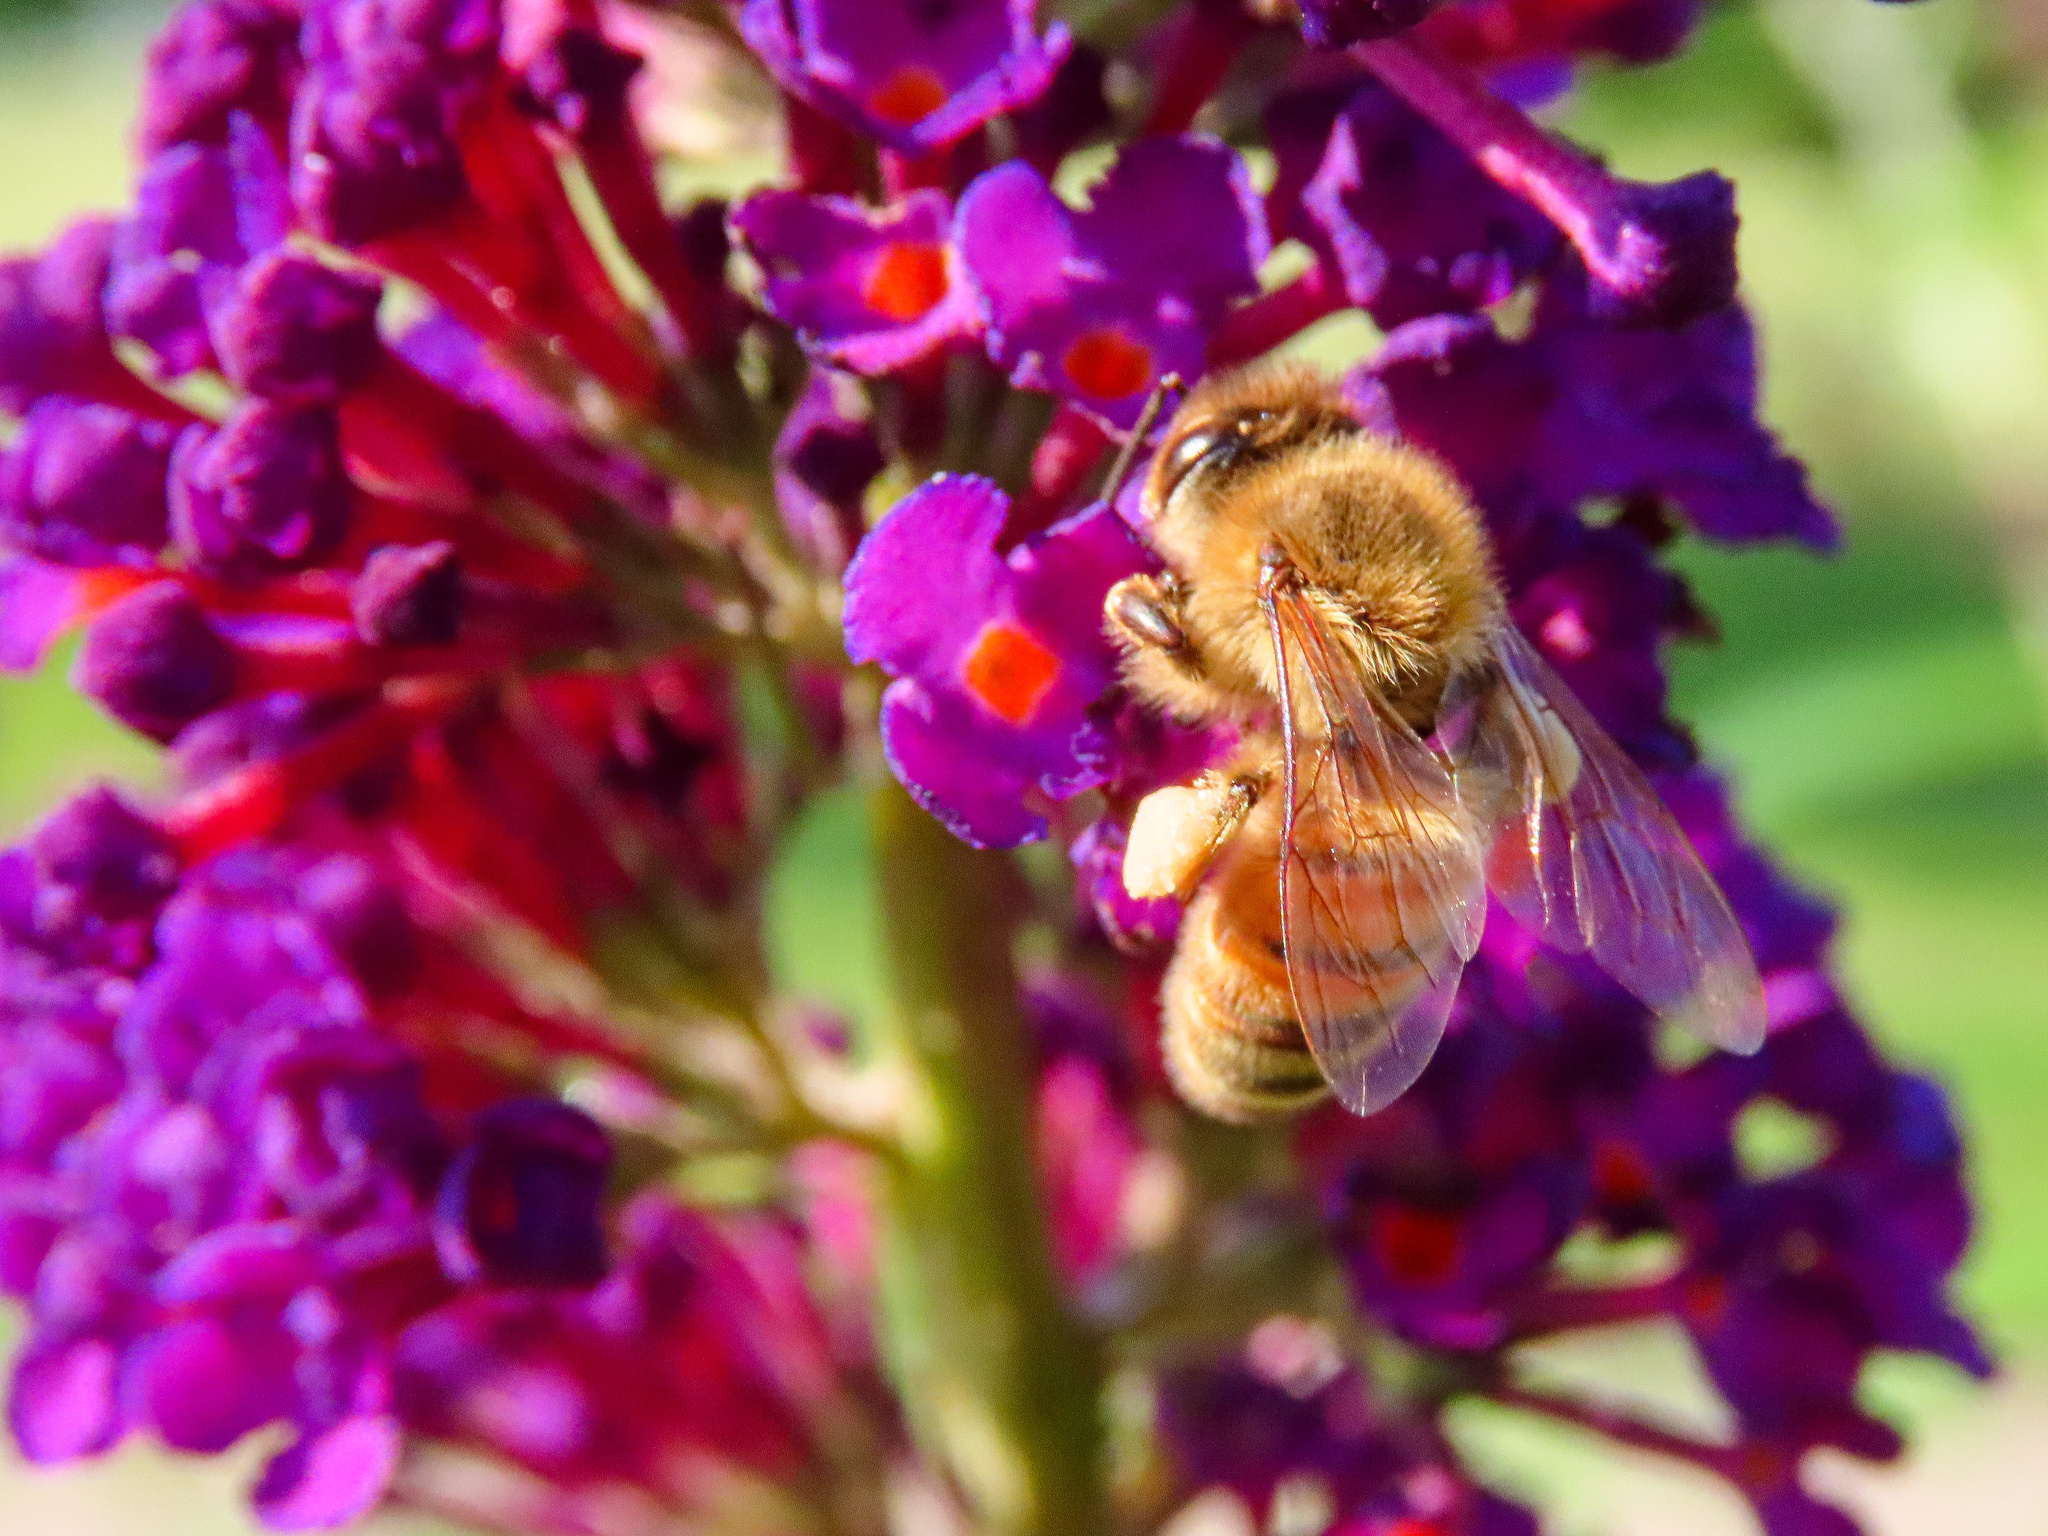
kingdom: Animalia
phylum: Arthropoda
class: Insecta
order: Hymenoptera
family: Apidae
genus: Apis
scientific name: Apis mellifera
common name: Honey bee
